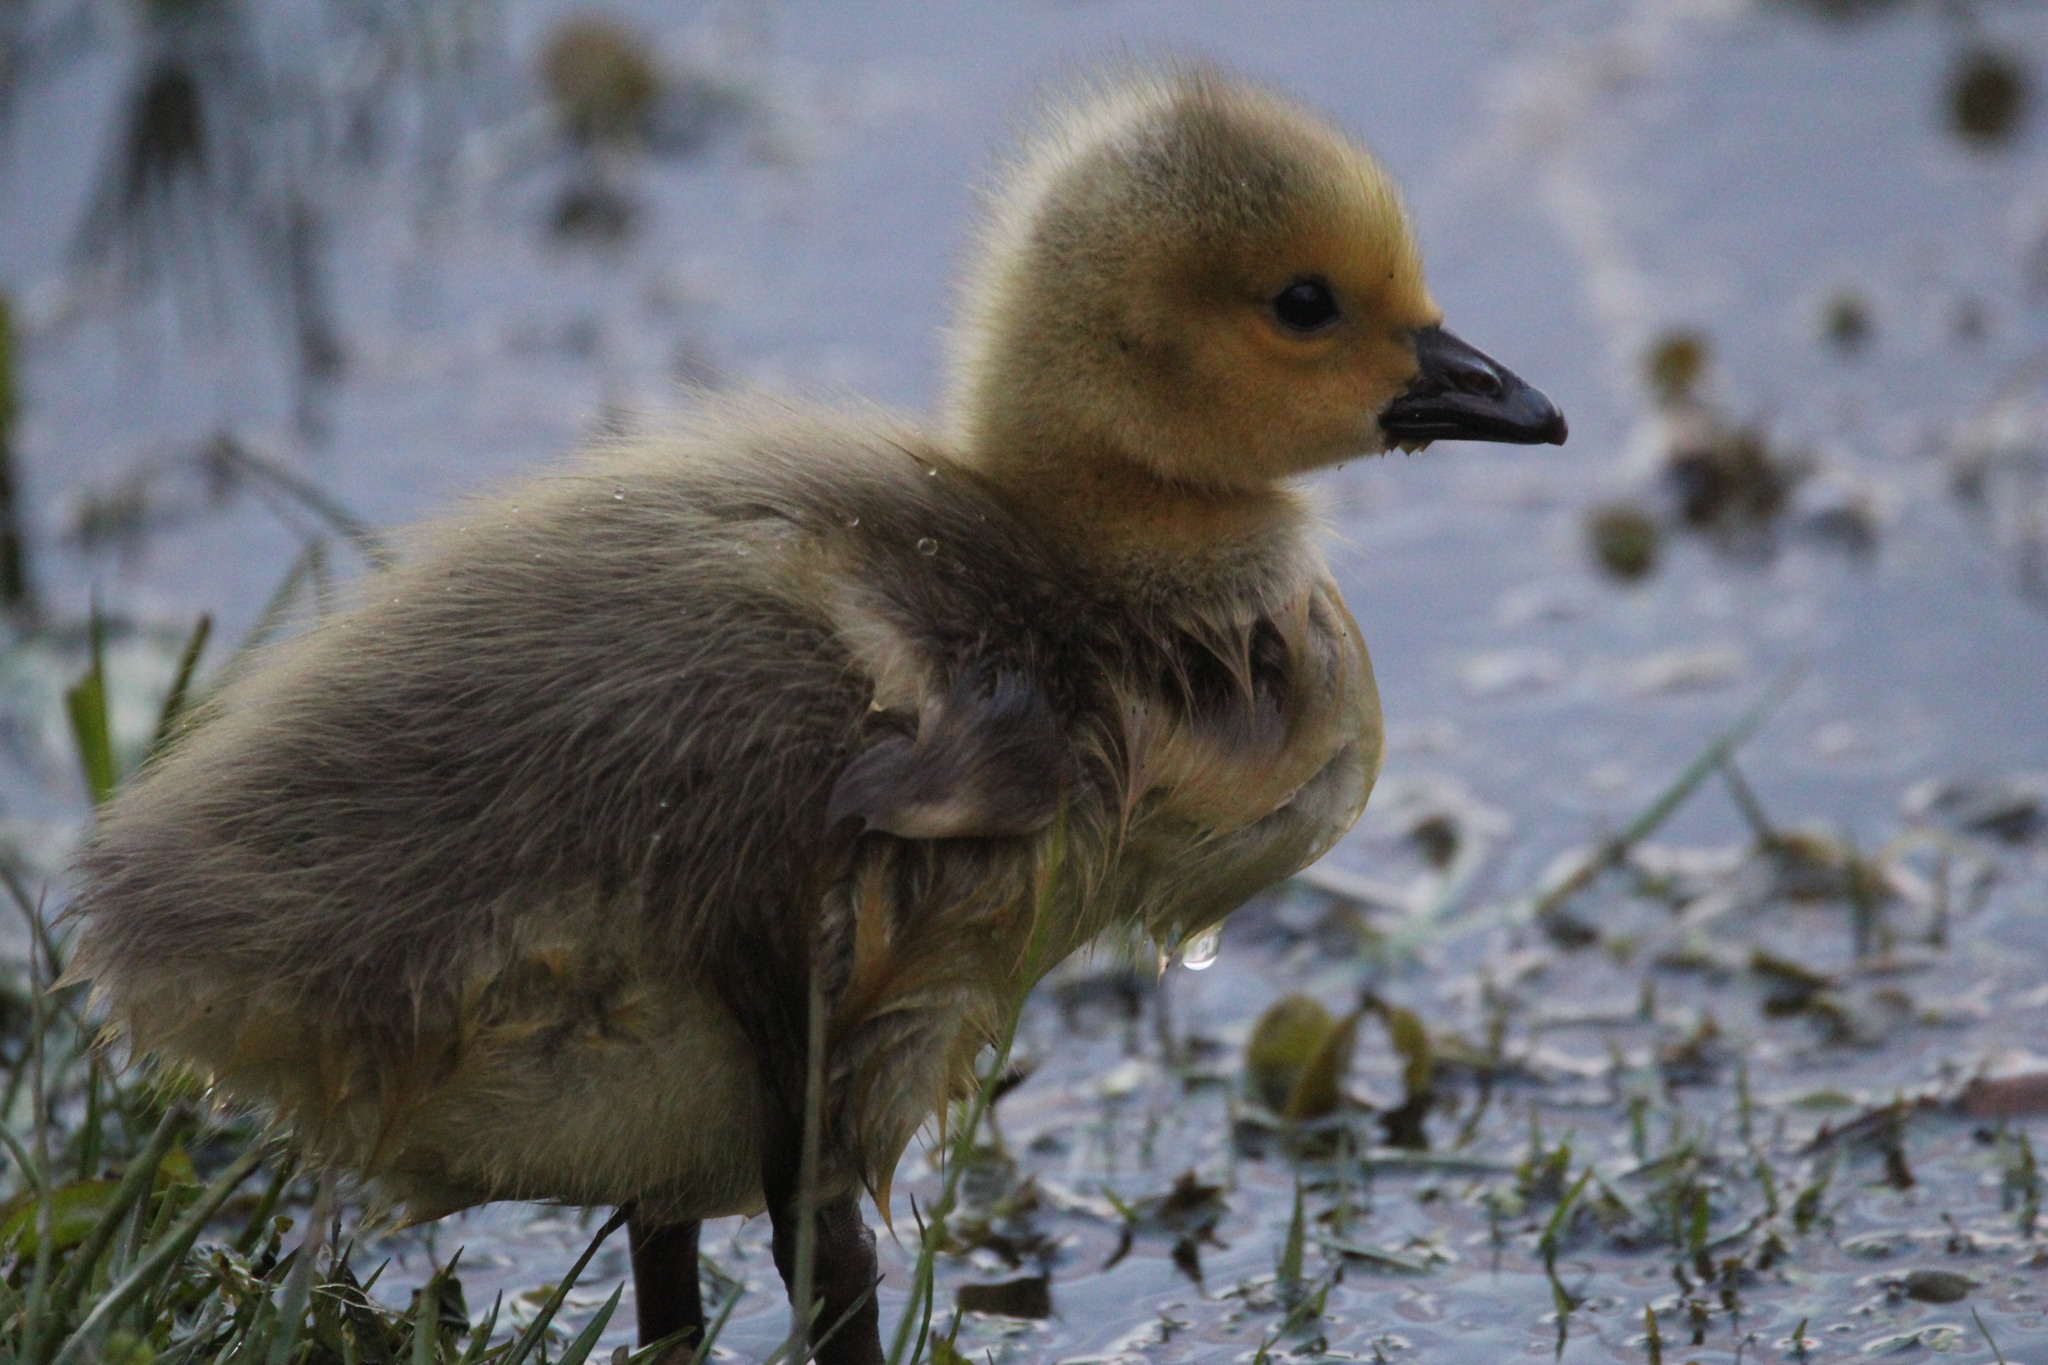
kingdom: Animalia
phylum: Chordata
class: Aves
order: Anseriformes
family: Anatidae
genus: Branta
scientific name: Branta canadensis
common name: Canada goose
